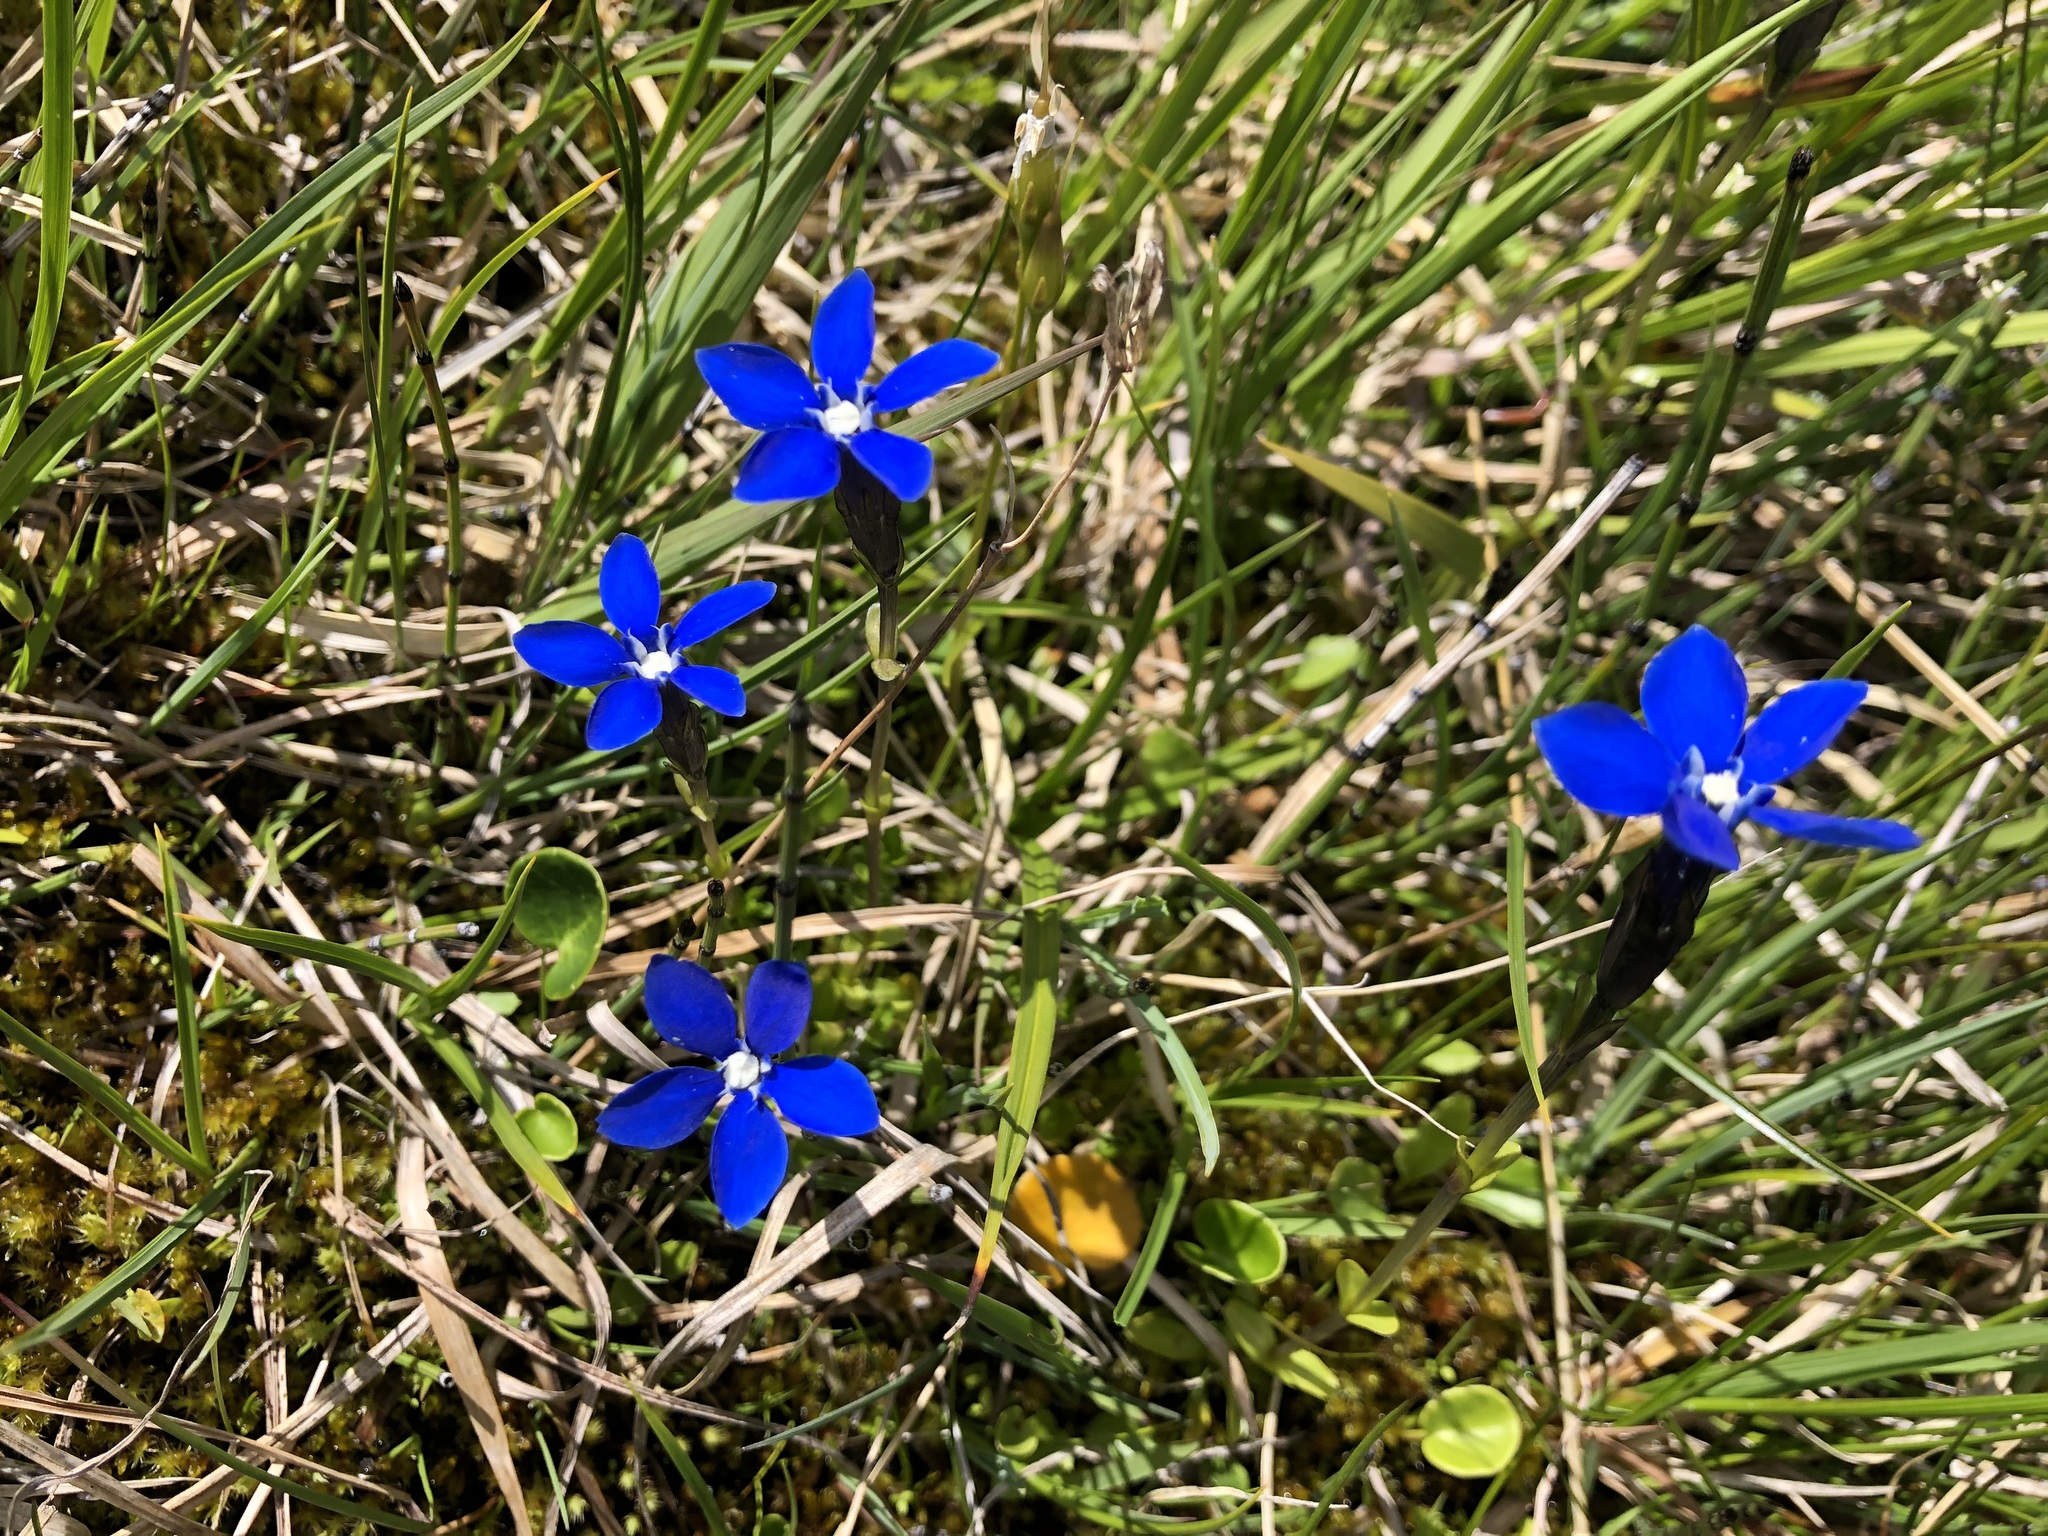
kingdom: Plantae
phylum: Tracheophyta
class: Magnoliopsida
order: Gentianales
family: Gentianaceae
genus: Gentiana
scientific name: Gentiana bavarica
